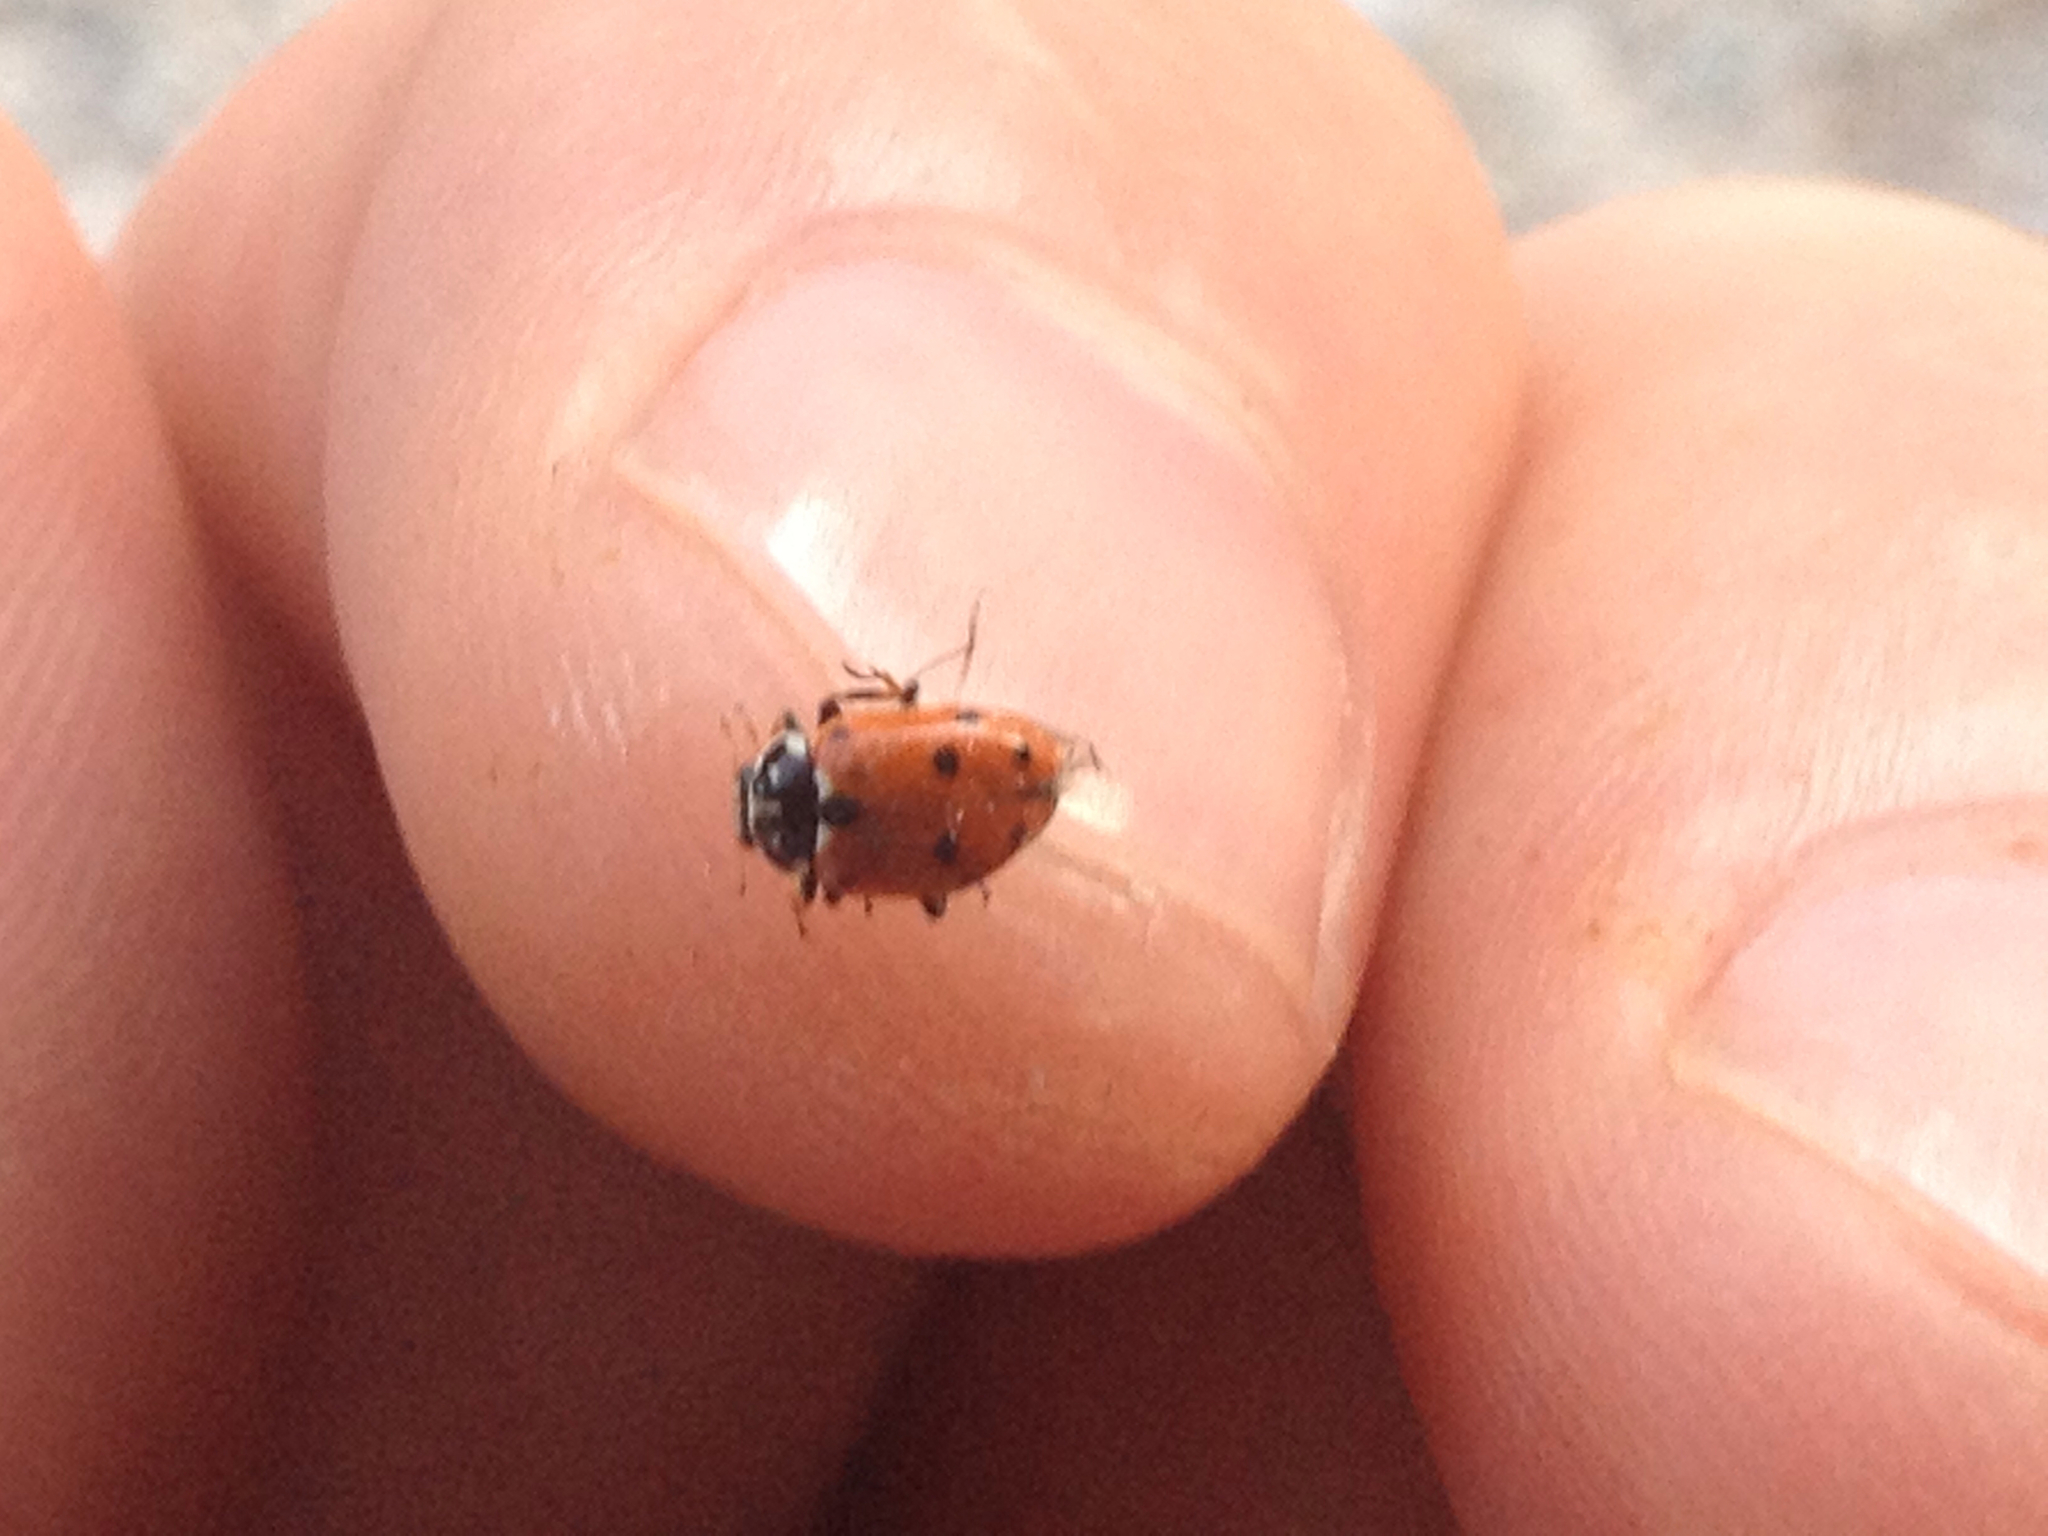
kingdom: Animalia
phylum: Arthropoda
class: Insecta
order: Coleoptera
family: Coccinellidae
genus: Hippodamia
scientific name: Hippodamia variegata
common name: Ladybird beetle
